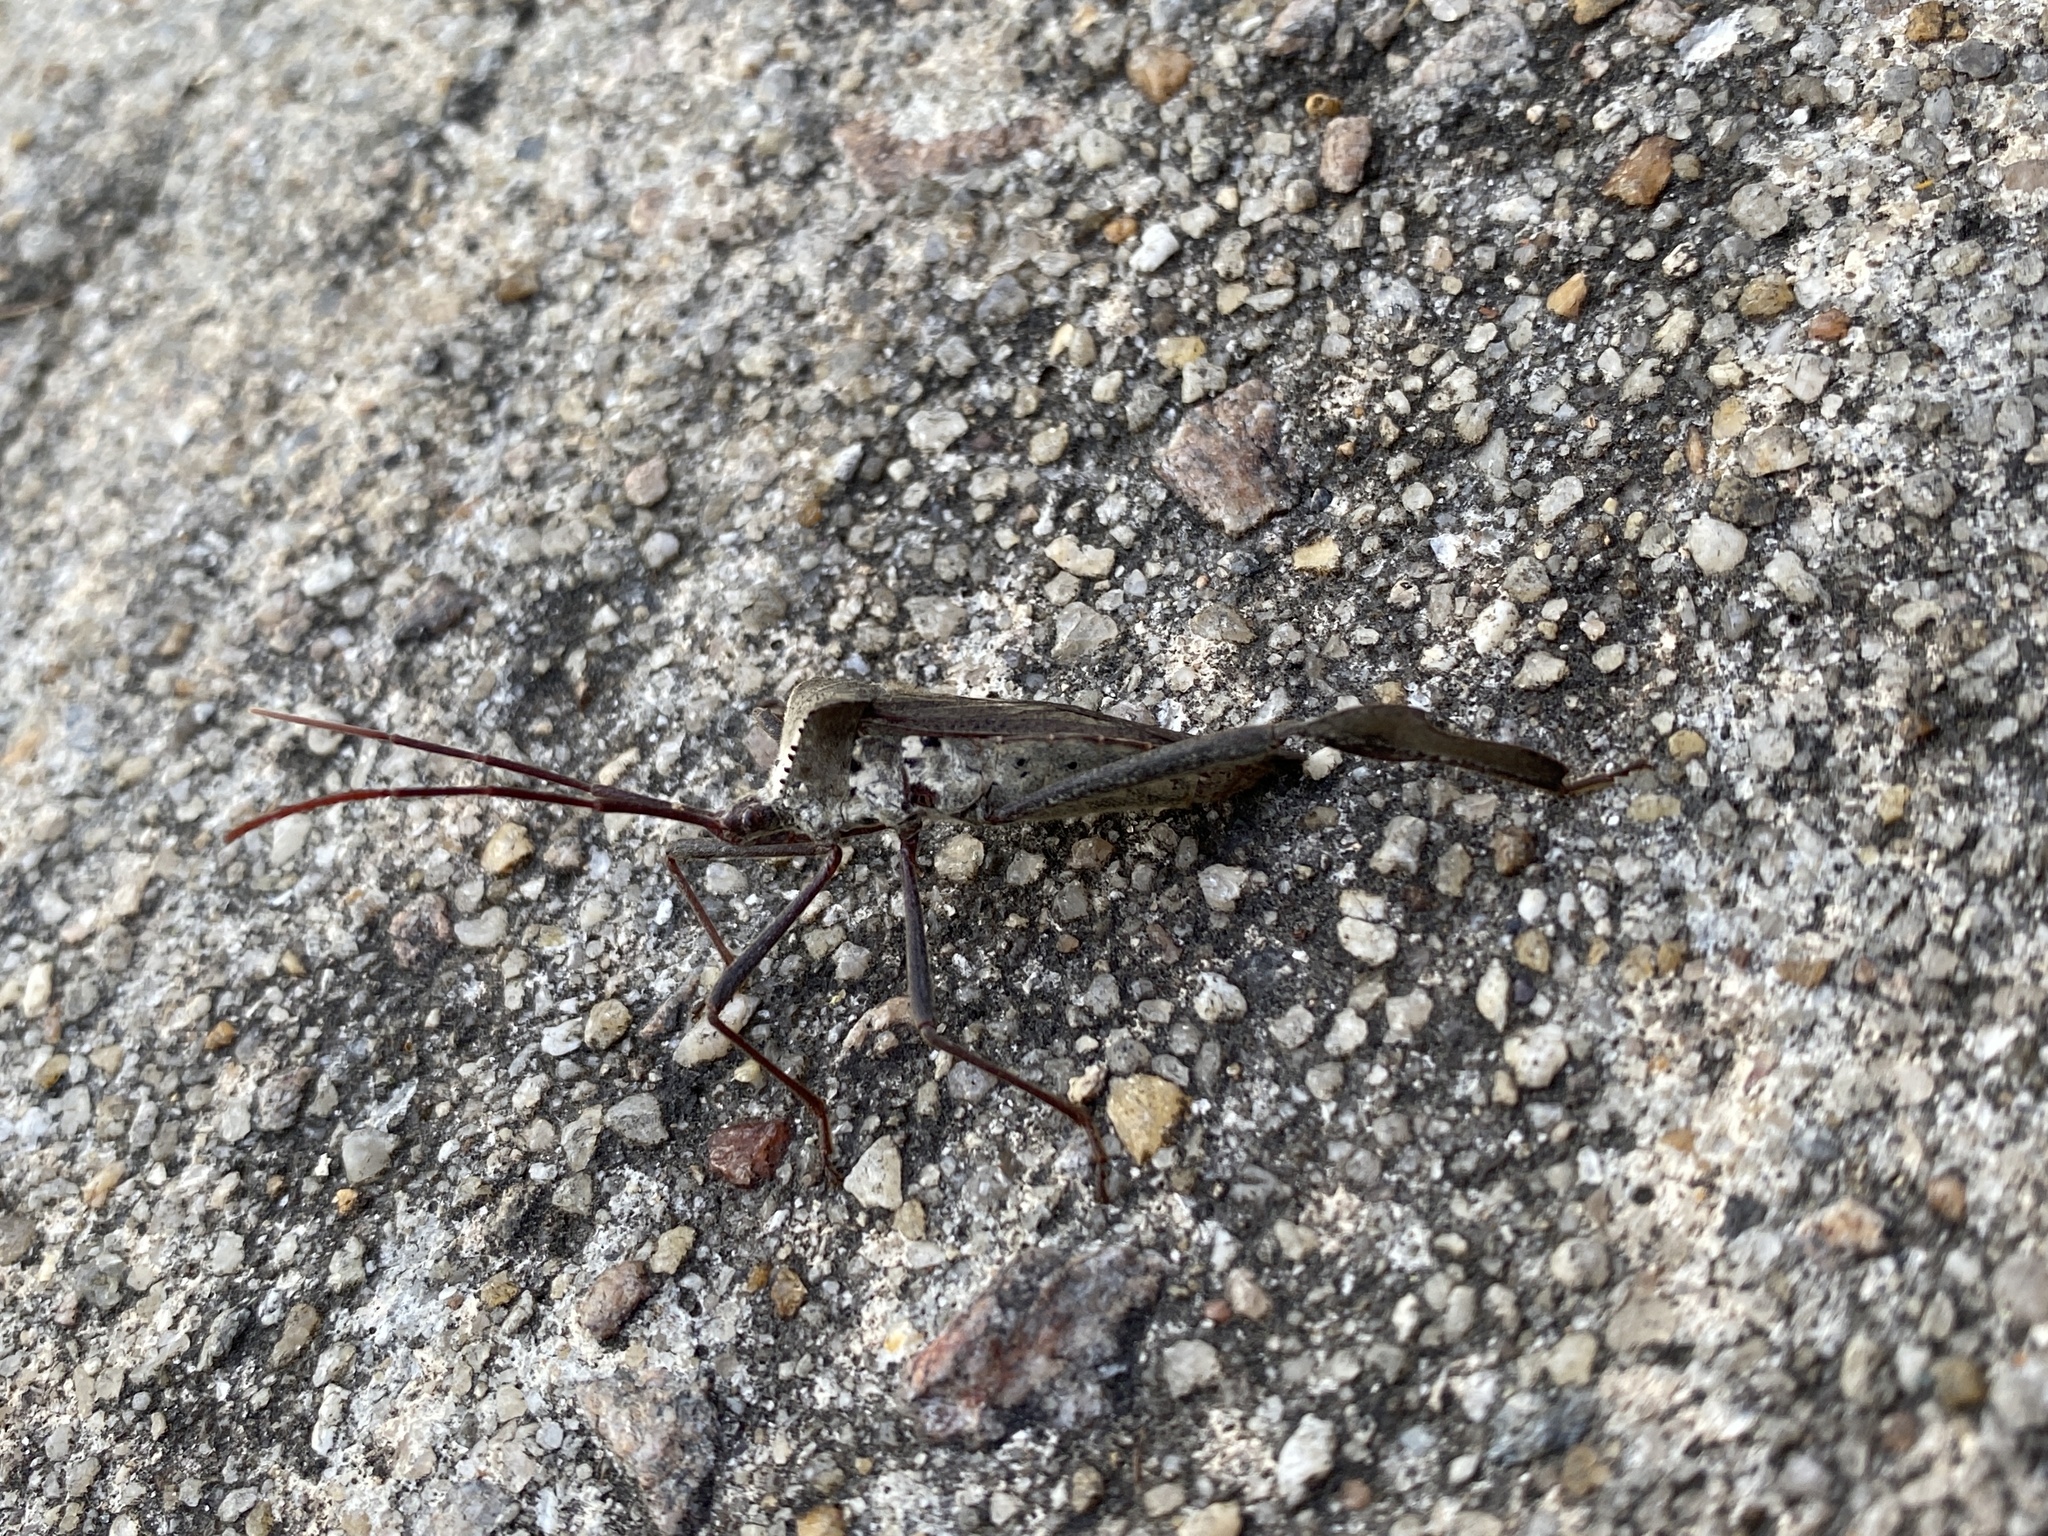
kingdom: Animalia
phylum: Arthropoda
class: Insecta
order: Hemiptera
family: Coreidae
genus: Acanthocephala
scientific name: Acanthocephala declivis
